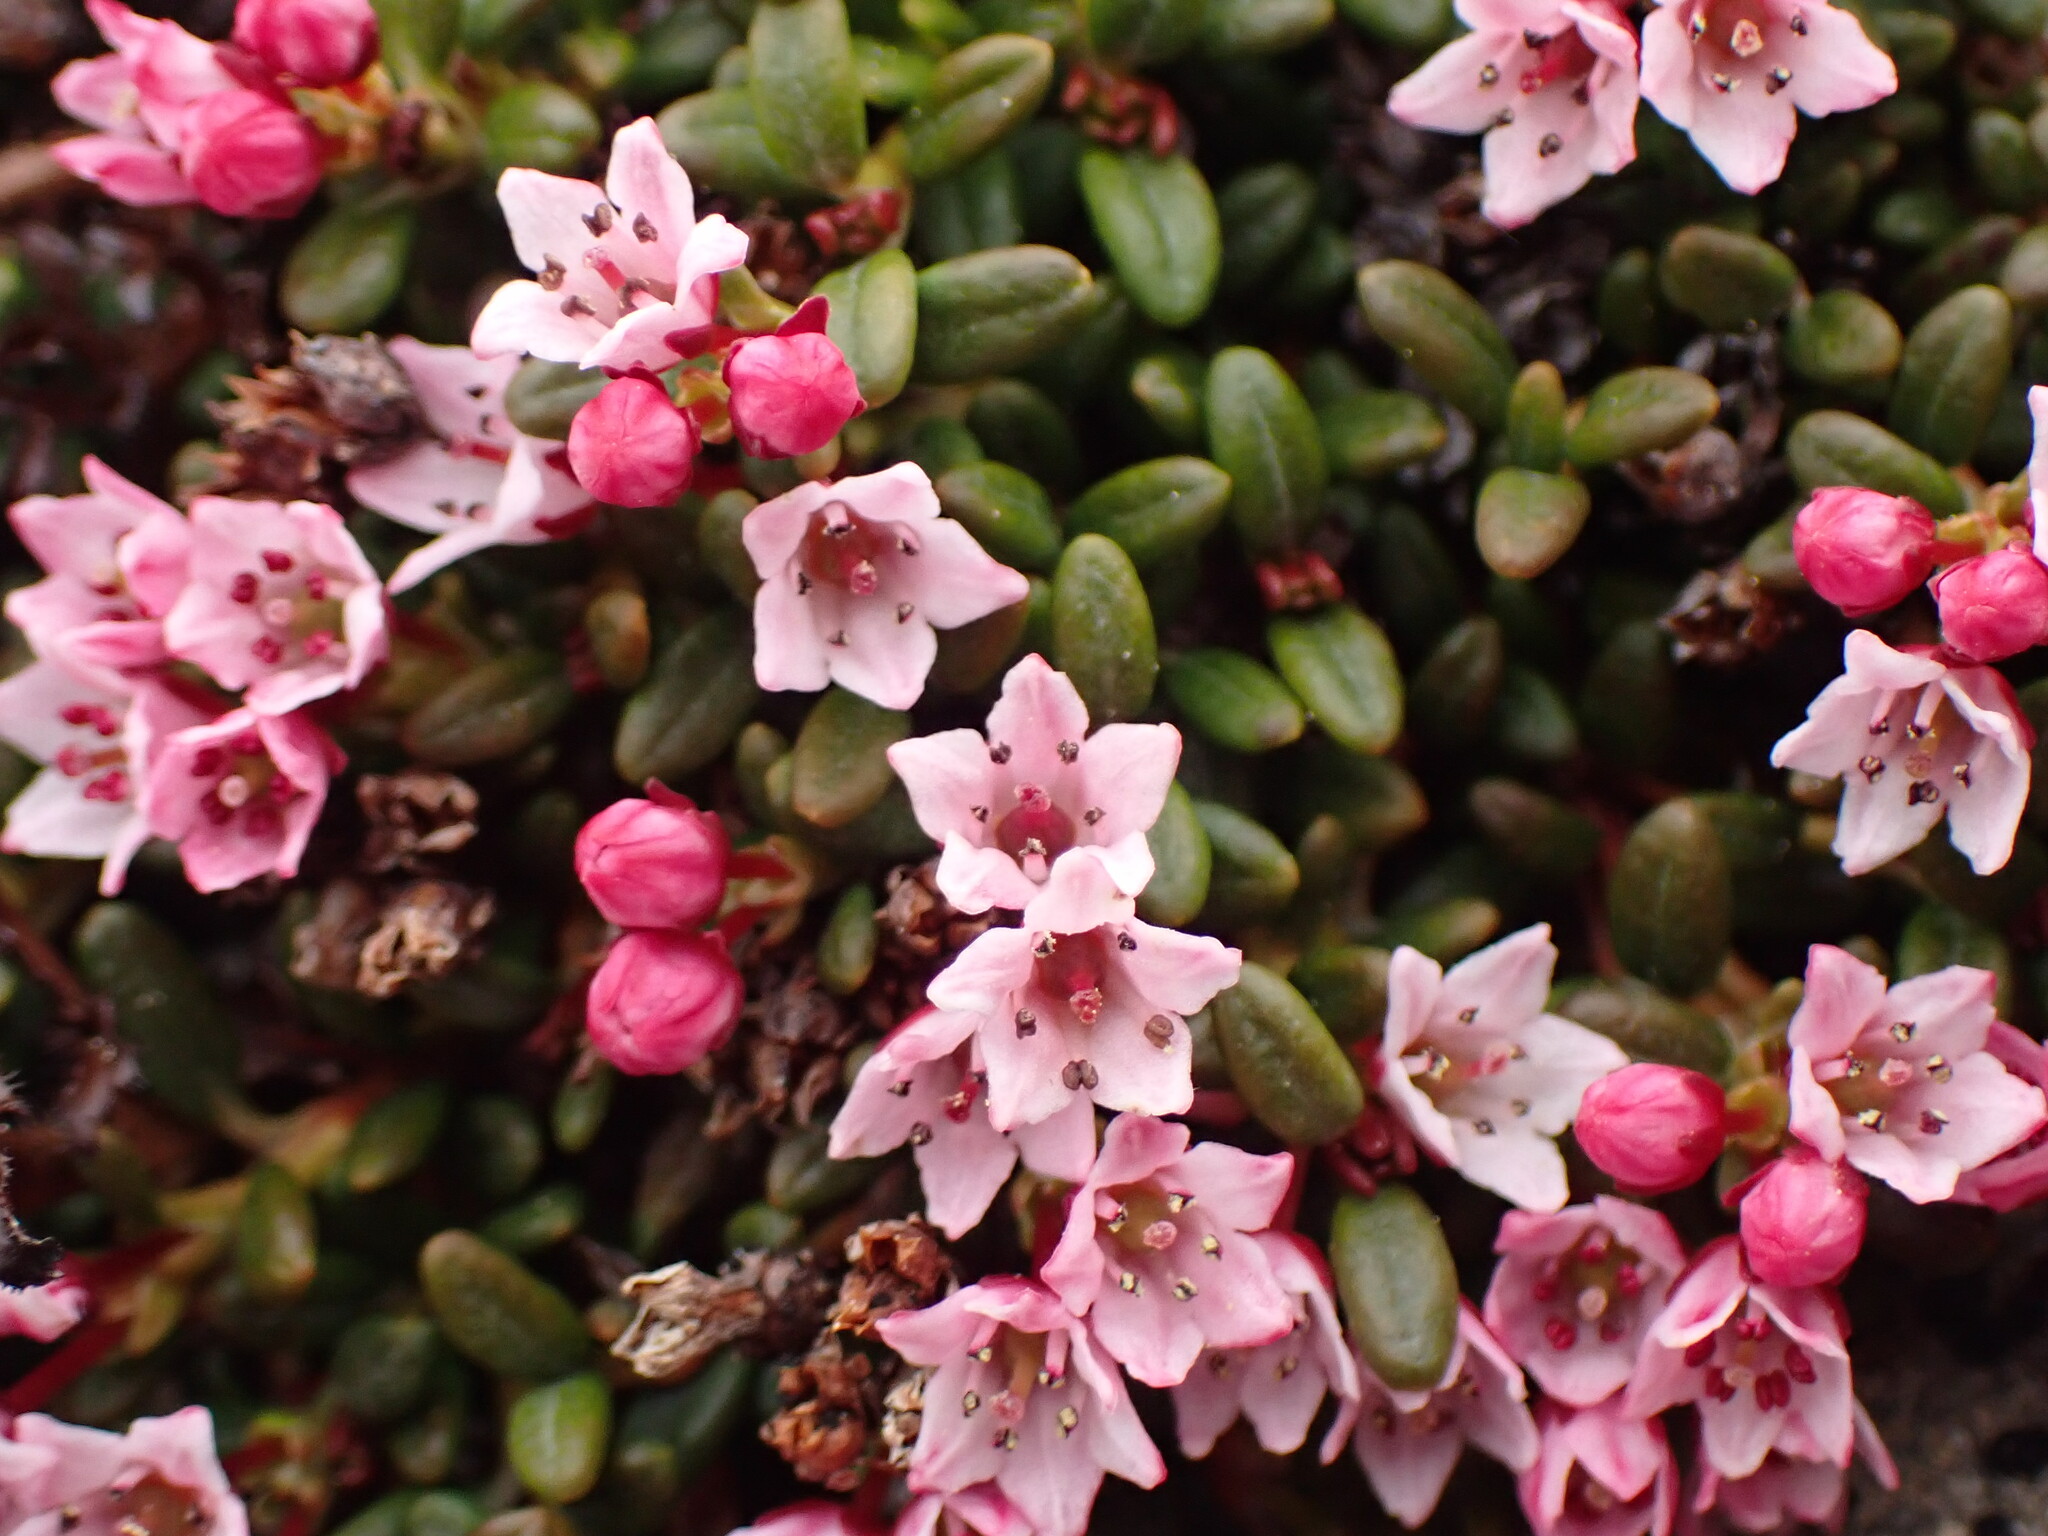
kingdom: Plantae
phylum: Tracheophyta
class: Magnoliopsida
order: Ericales
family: Ericaceae
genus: Kalmia
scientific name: Kalmia procumbens
